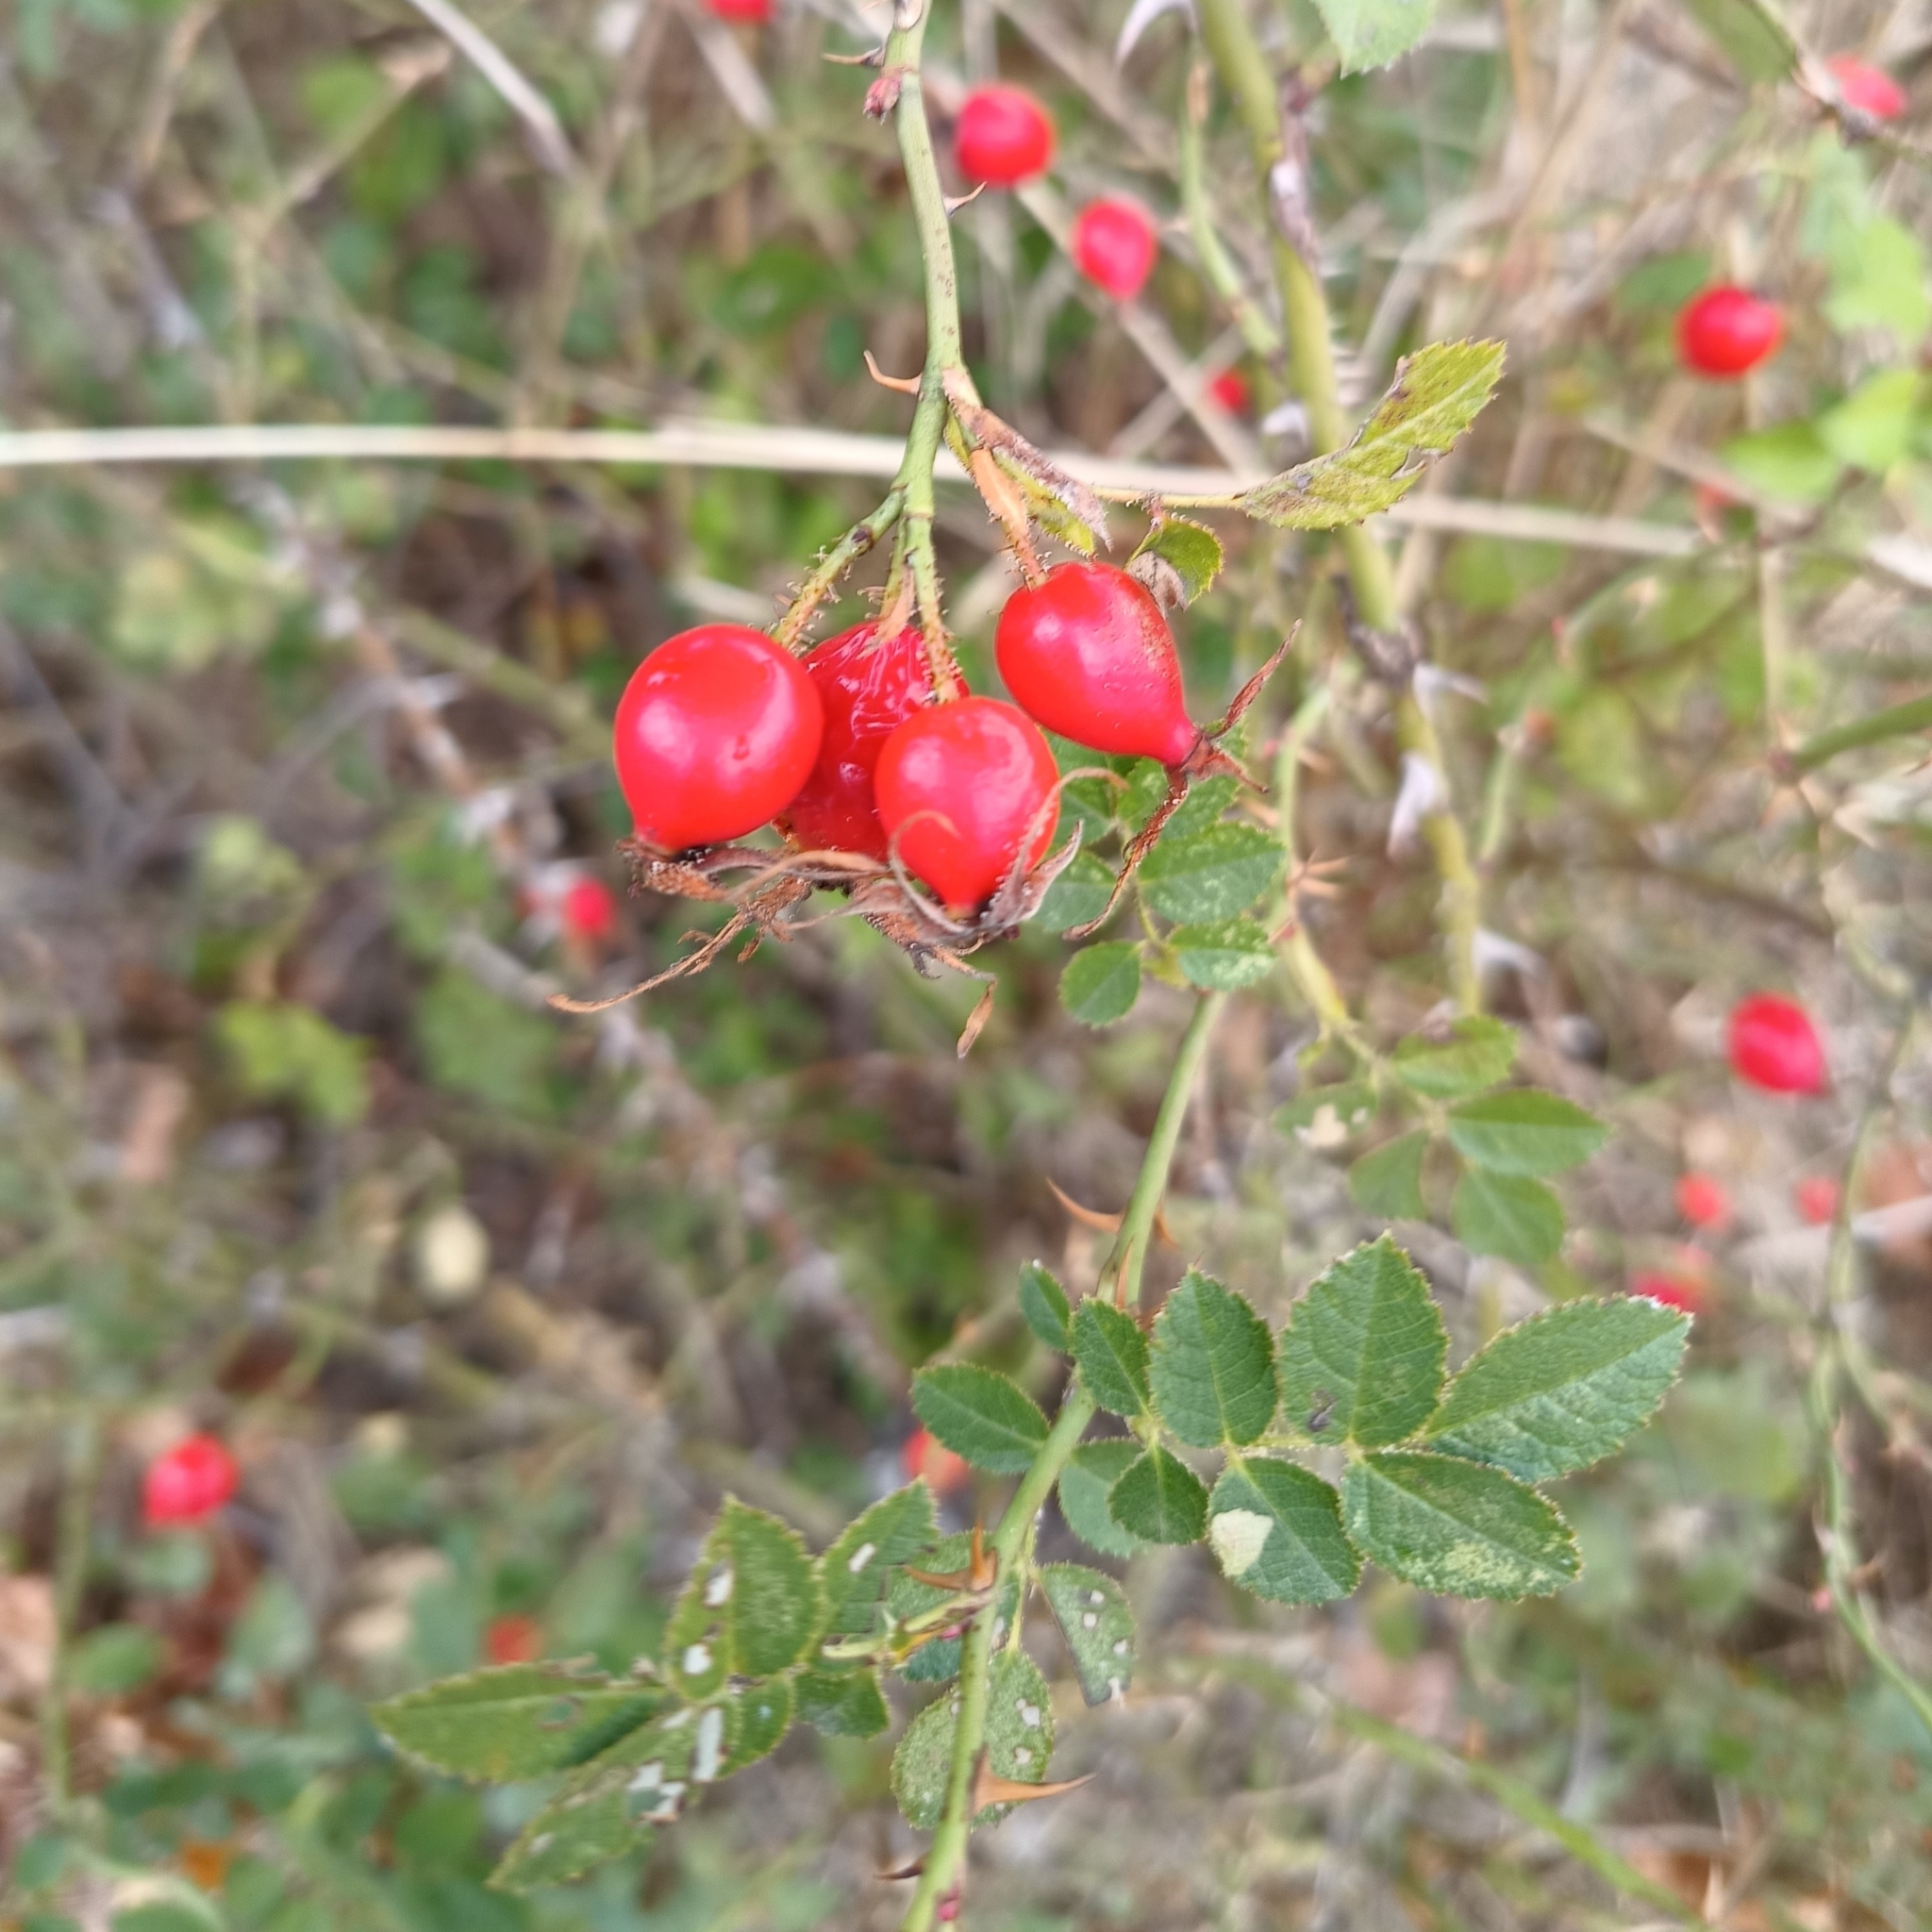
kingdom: Plantae
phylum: Tracheophyta
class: Magnoliopsida
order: Rosales
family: Rosaceae
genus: Rosa
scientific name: Rosa rubiginosa
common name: Sweet-briar
